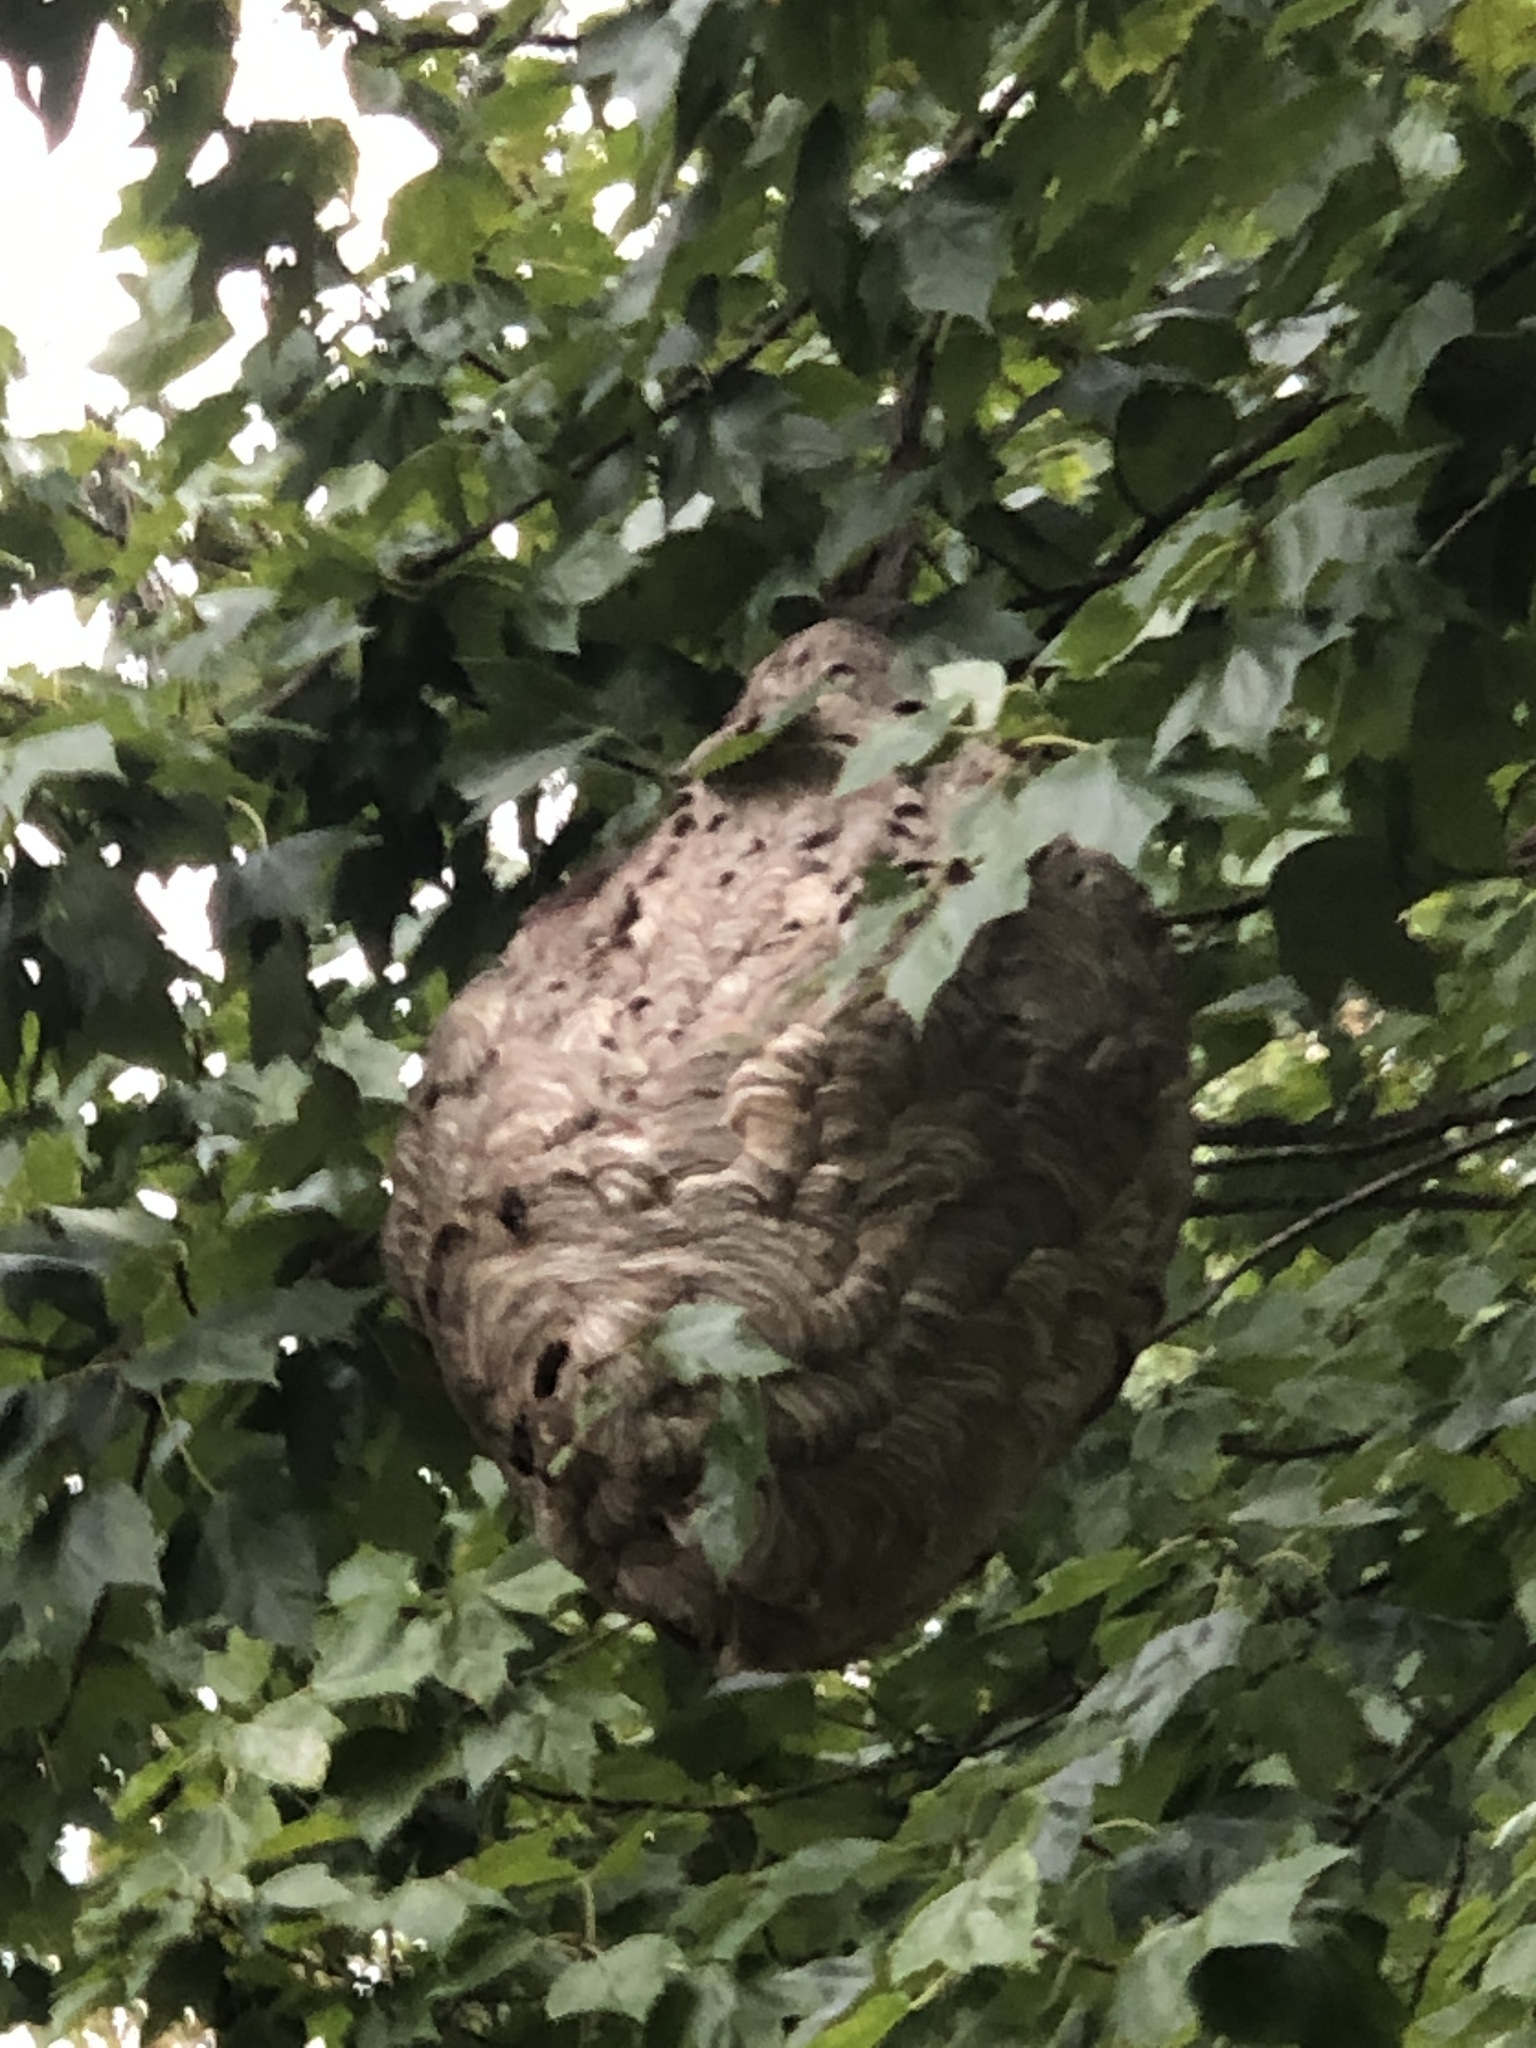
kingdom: Animalia
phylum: Arthropoda
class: Insecta
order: Hymenoptera
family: Vespidae
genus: Dolichovespula
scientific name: Dolichovespula maculata
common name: Bald-faced hornet
